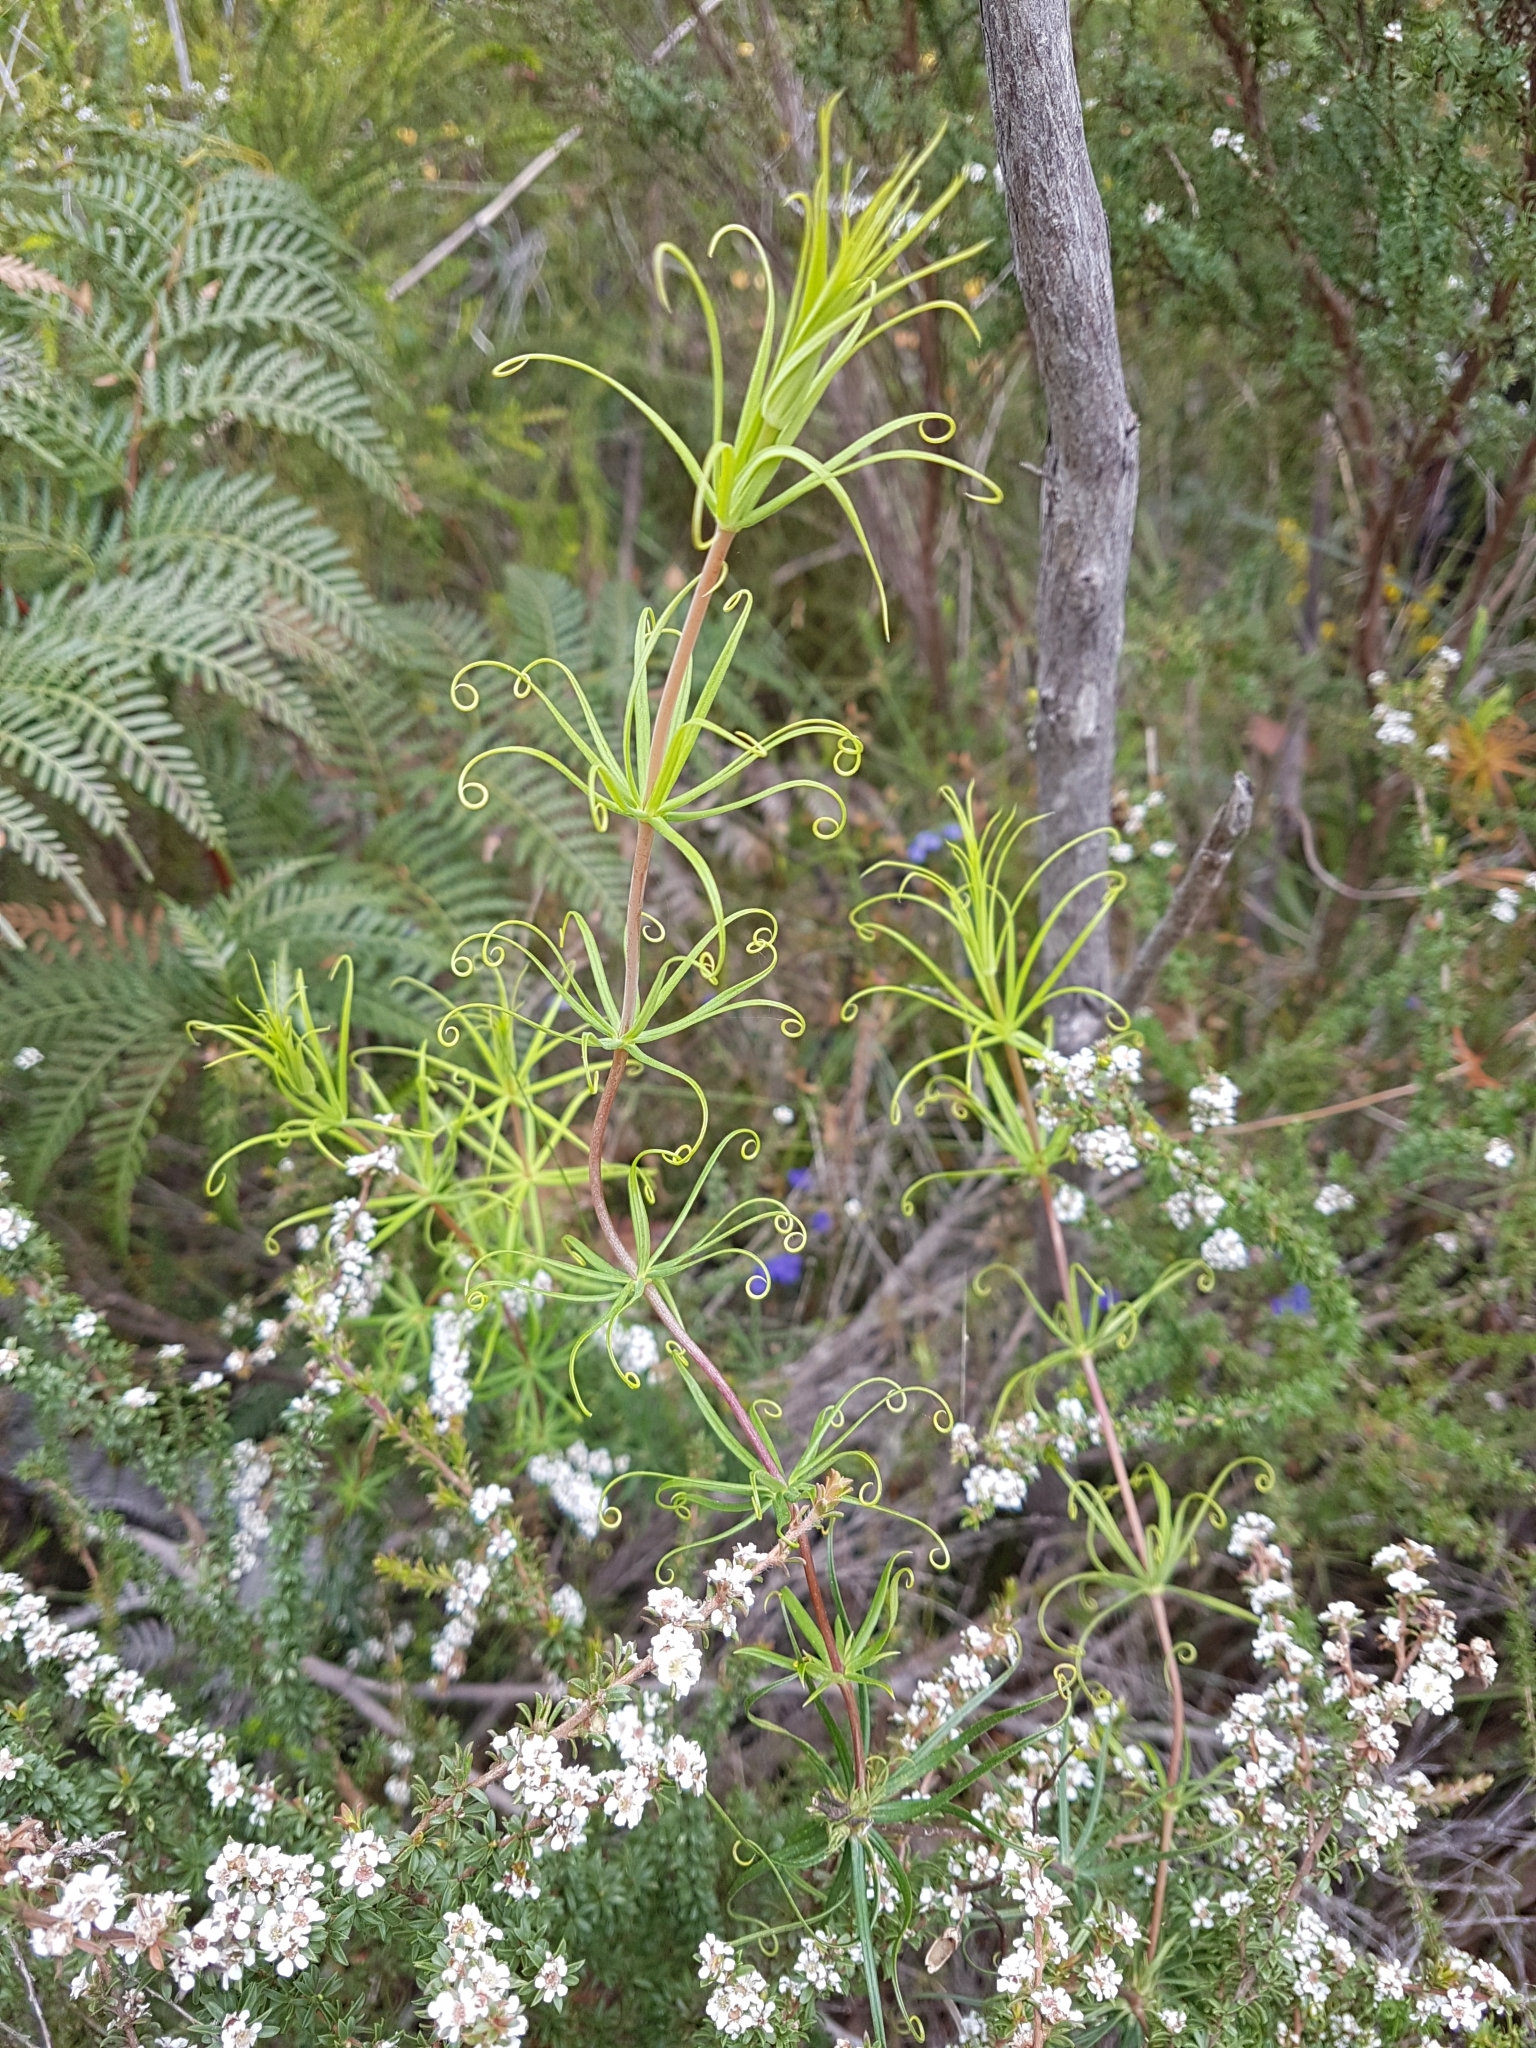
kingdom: Plantae
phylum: Tracheophyta
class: Magnoliopsida
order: Asterales
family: Stylidiaceae
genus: Stylidium
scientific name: Stylidium scandens
